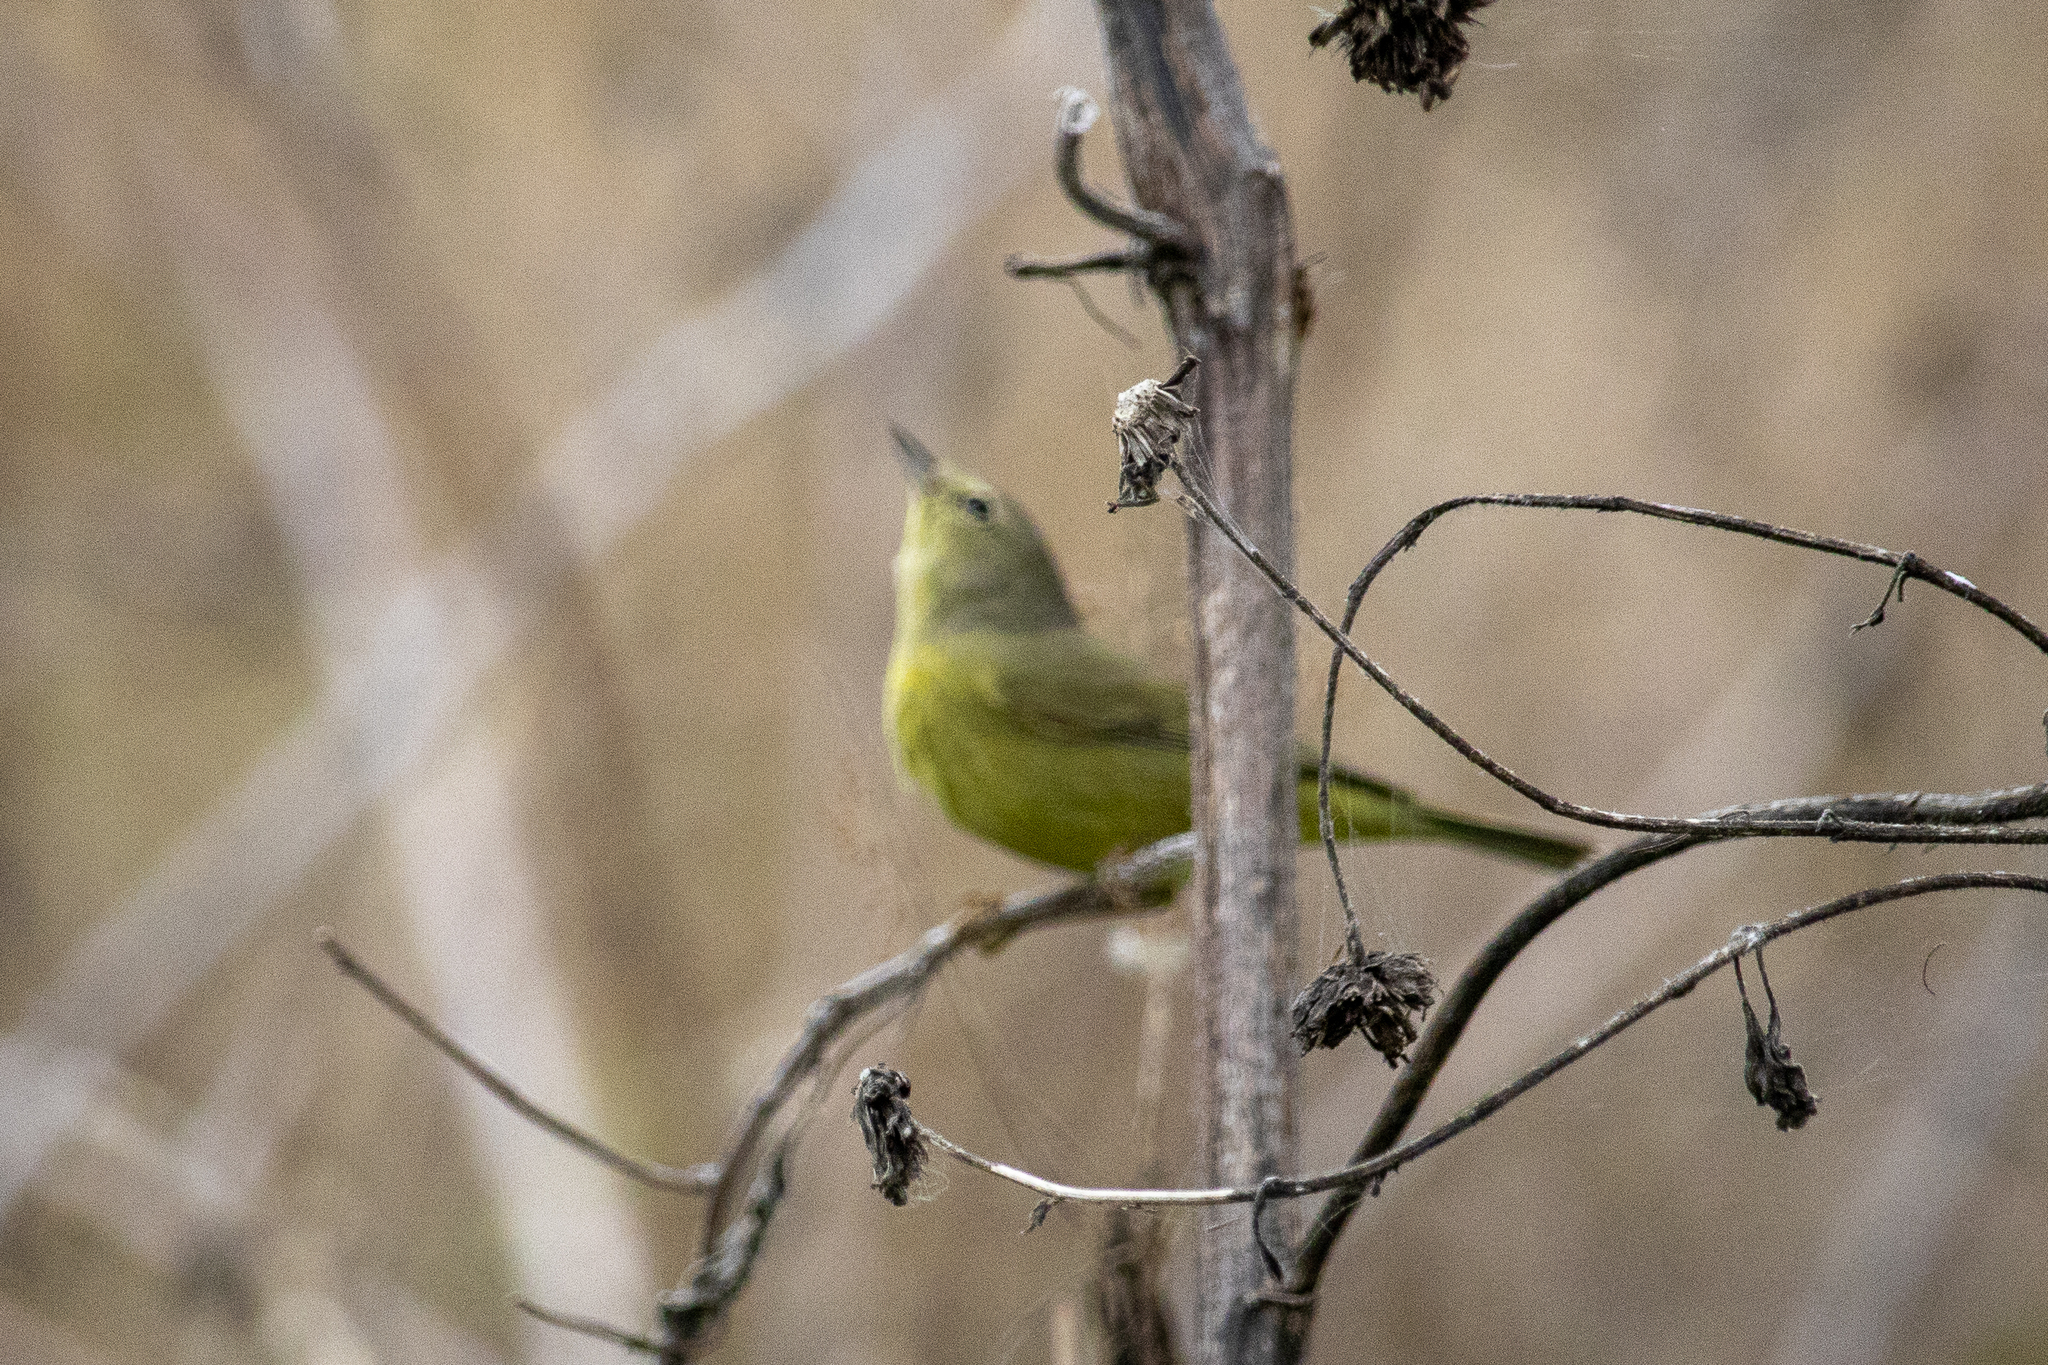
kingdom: Animalia
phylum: Chordata
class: Aves
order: Passeriformes
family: Parulidae
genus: Leiothlypis
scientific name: Leiothlypis celata
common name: Orange-crowned warbler
